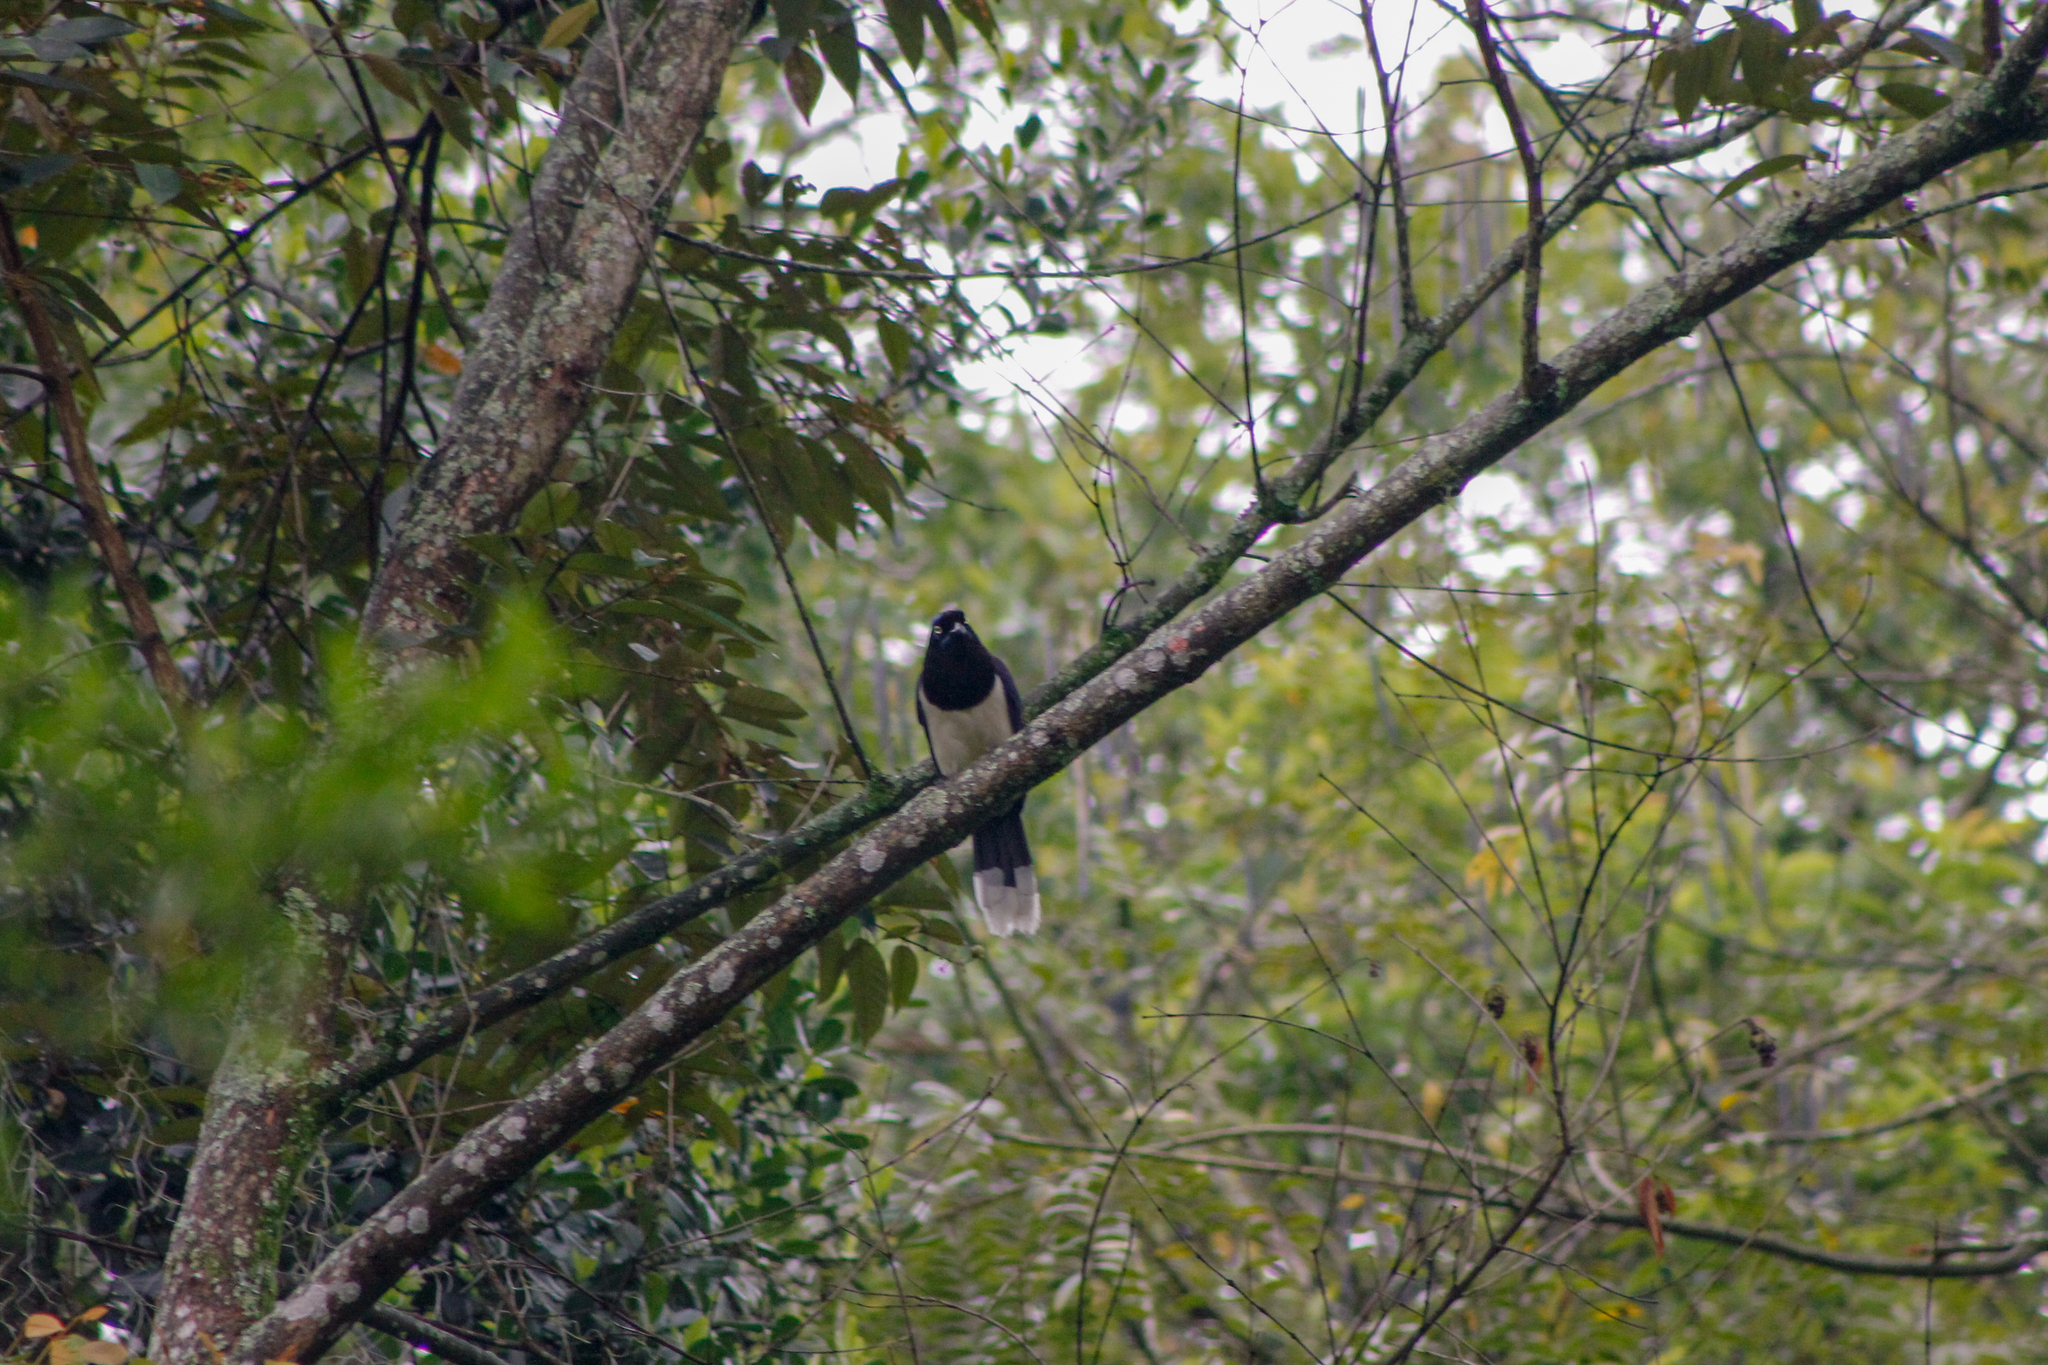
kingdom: Animalia
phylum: Chordata
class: Aves
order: Passeriformes
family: Corvidae
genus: Cyanocorax
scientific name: Cyanocorax affinis
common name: Black-chested jay
